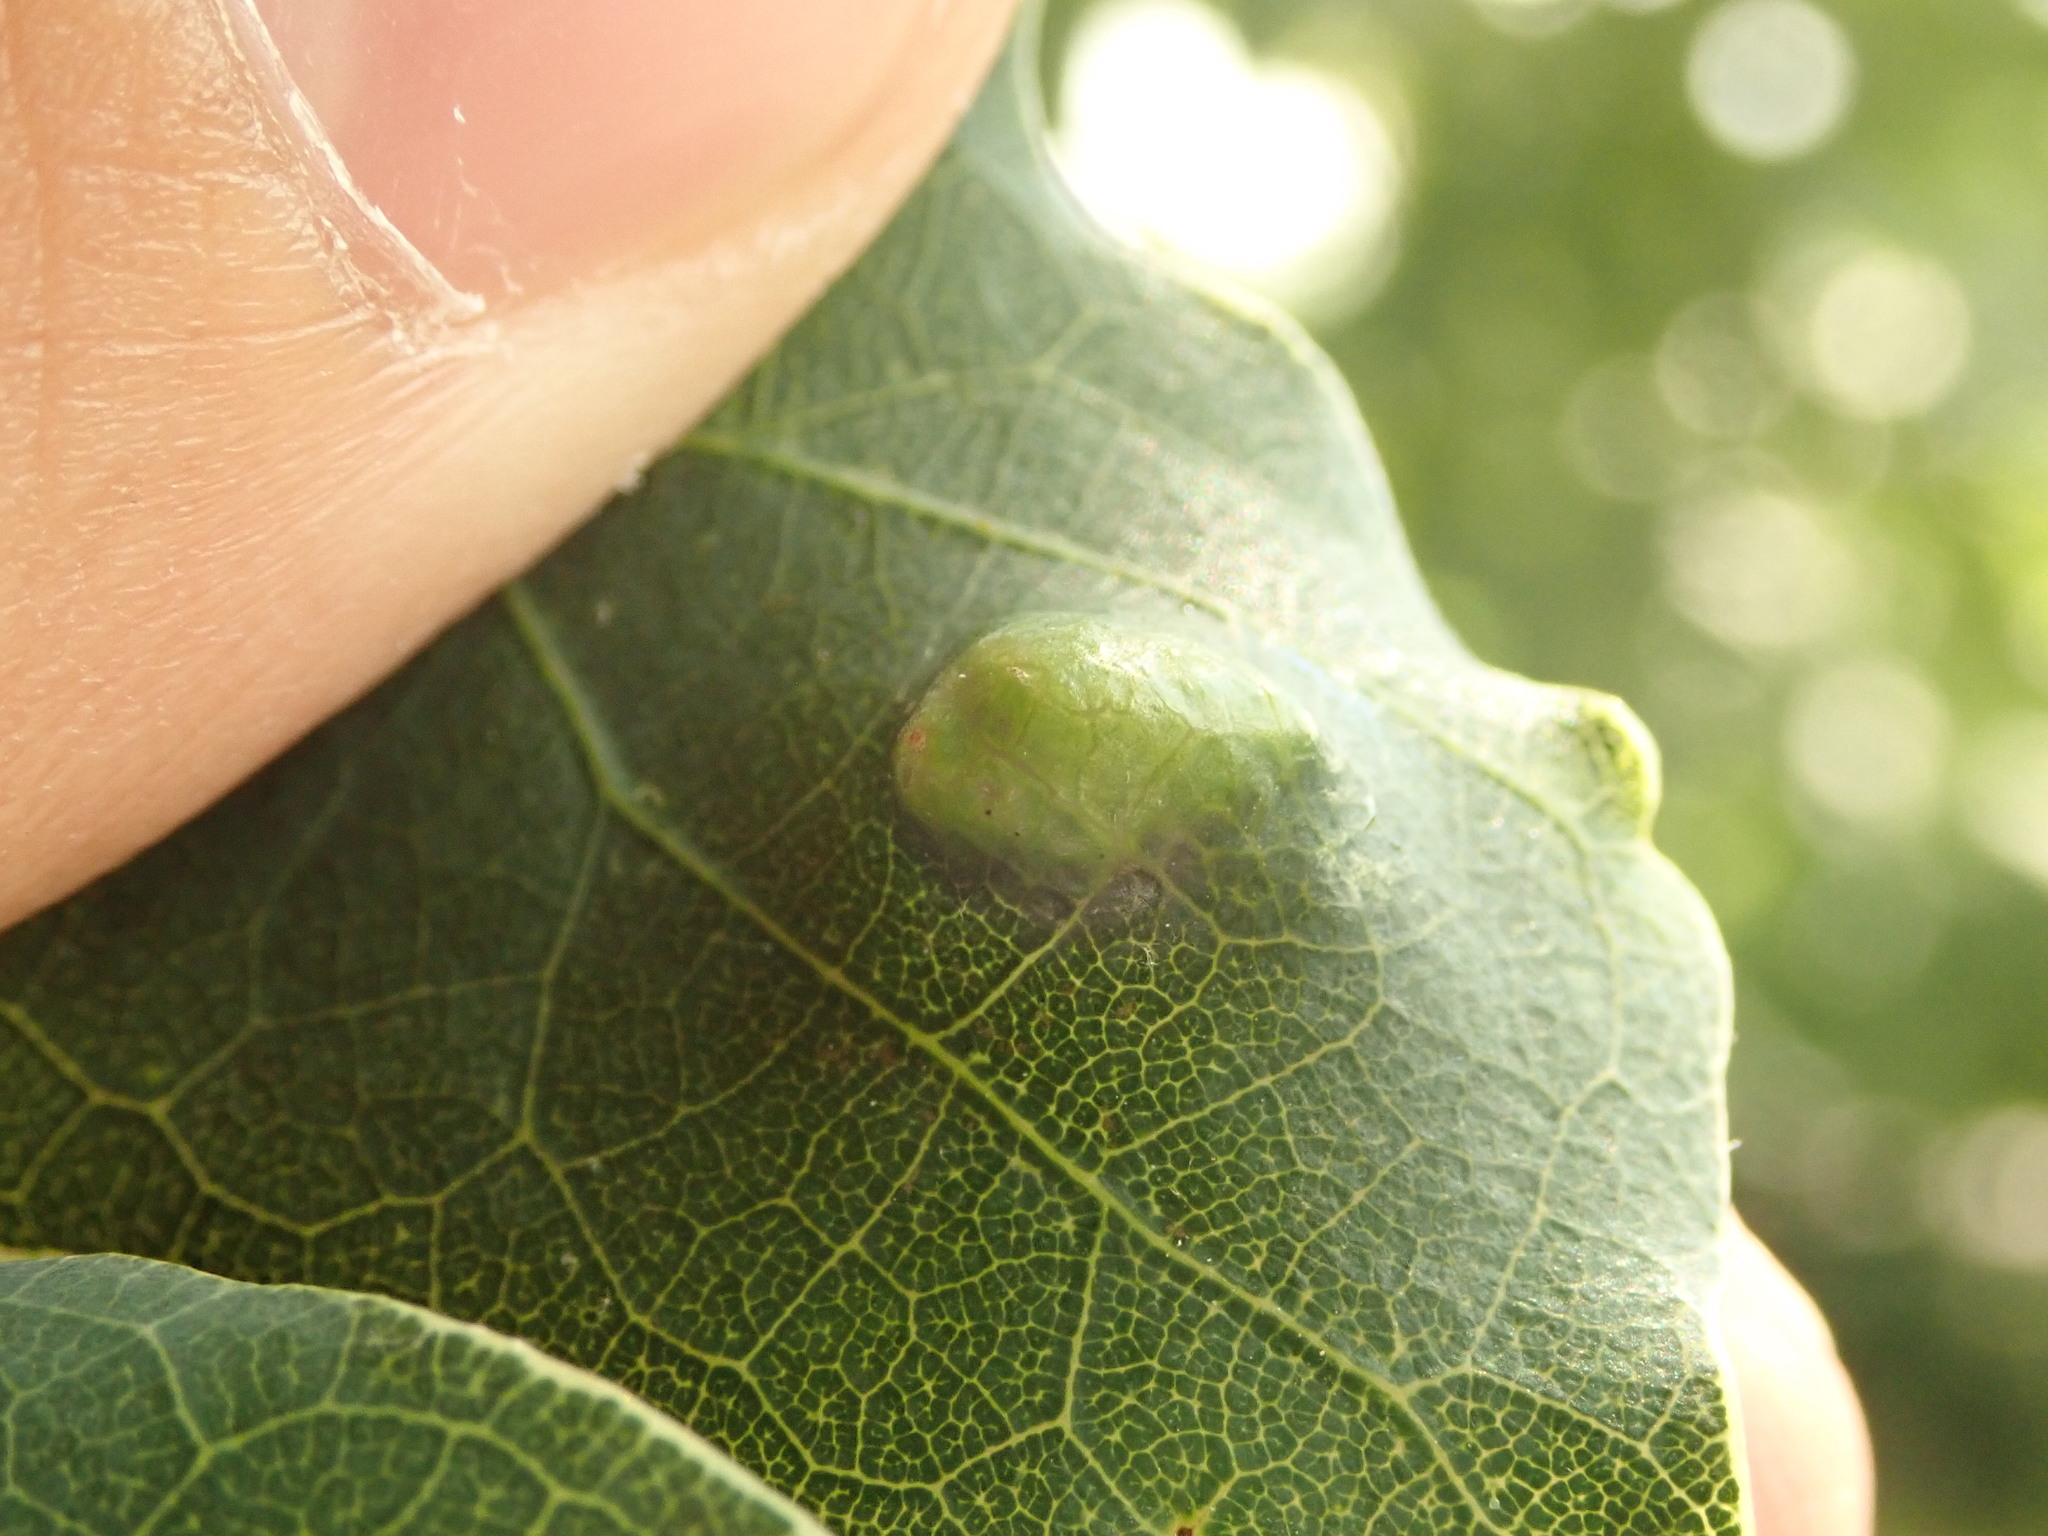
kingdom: Animalia
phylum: Arthropoda
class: Arachnida
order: Trombidiformes
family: Eriophyidae
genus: Aceria
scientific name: Aceria
